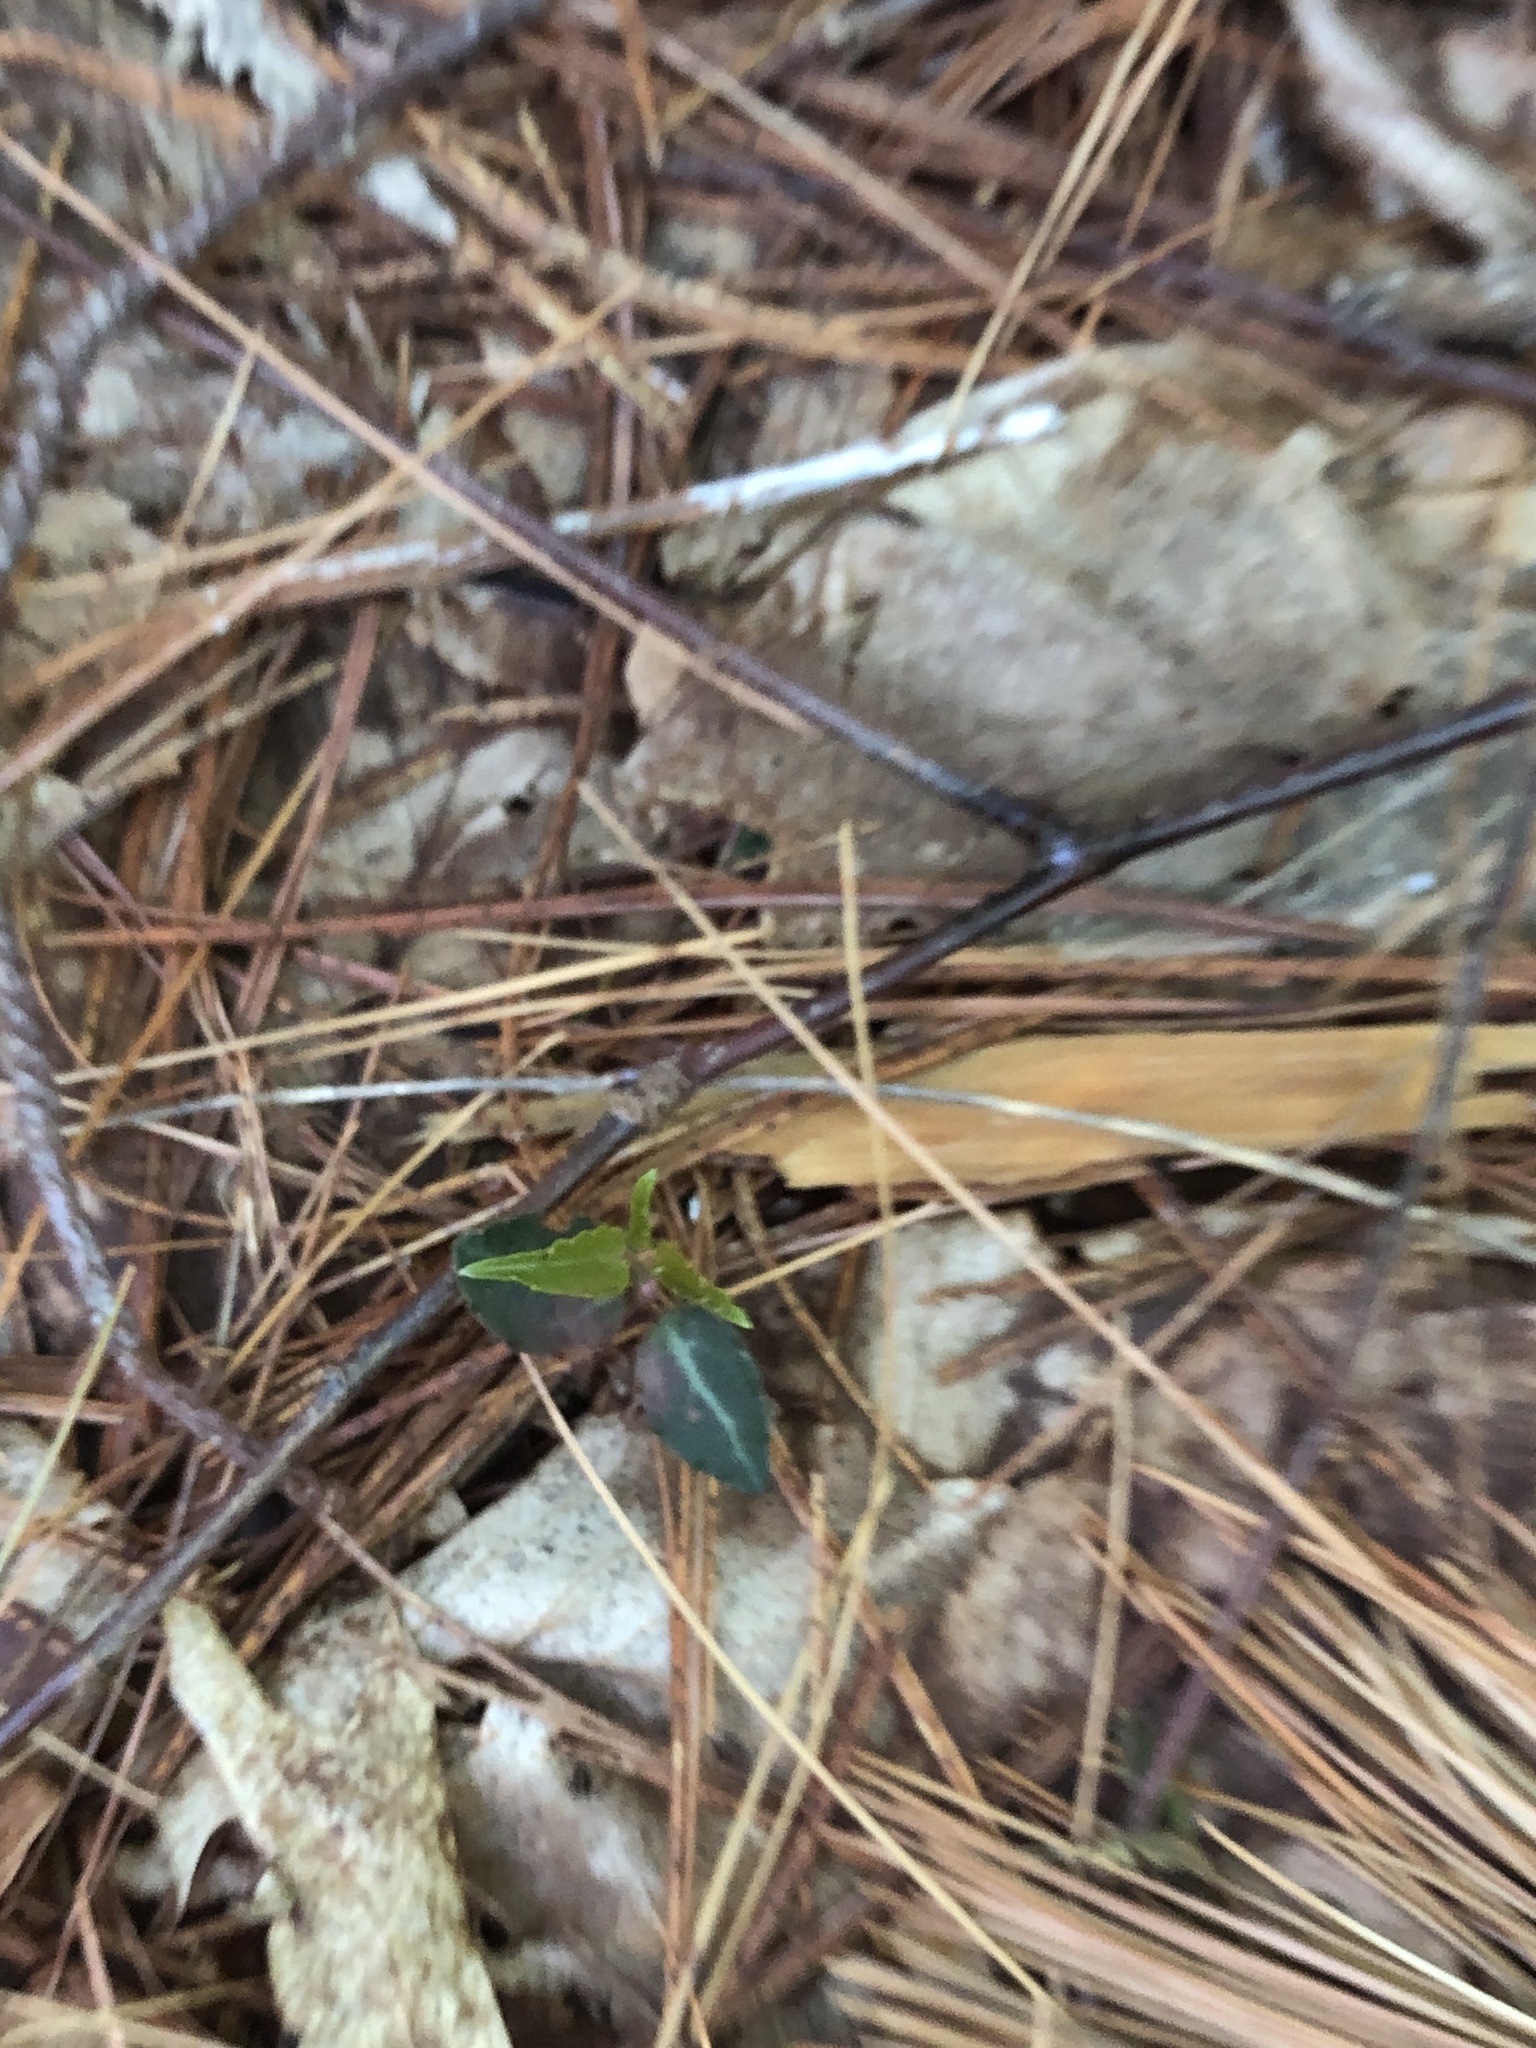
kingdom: Plantae
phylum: Tracheophyta
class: Magnoliopsida
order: Ericales
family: Ericaceae
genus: Chimaphila
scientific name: Chimaphila maculata
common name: Spotted pipsissewa
